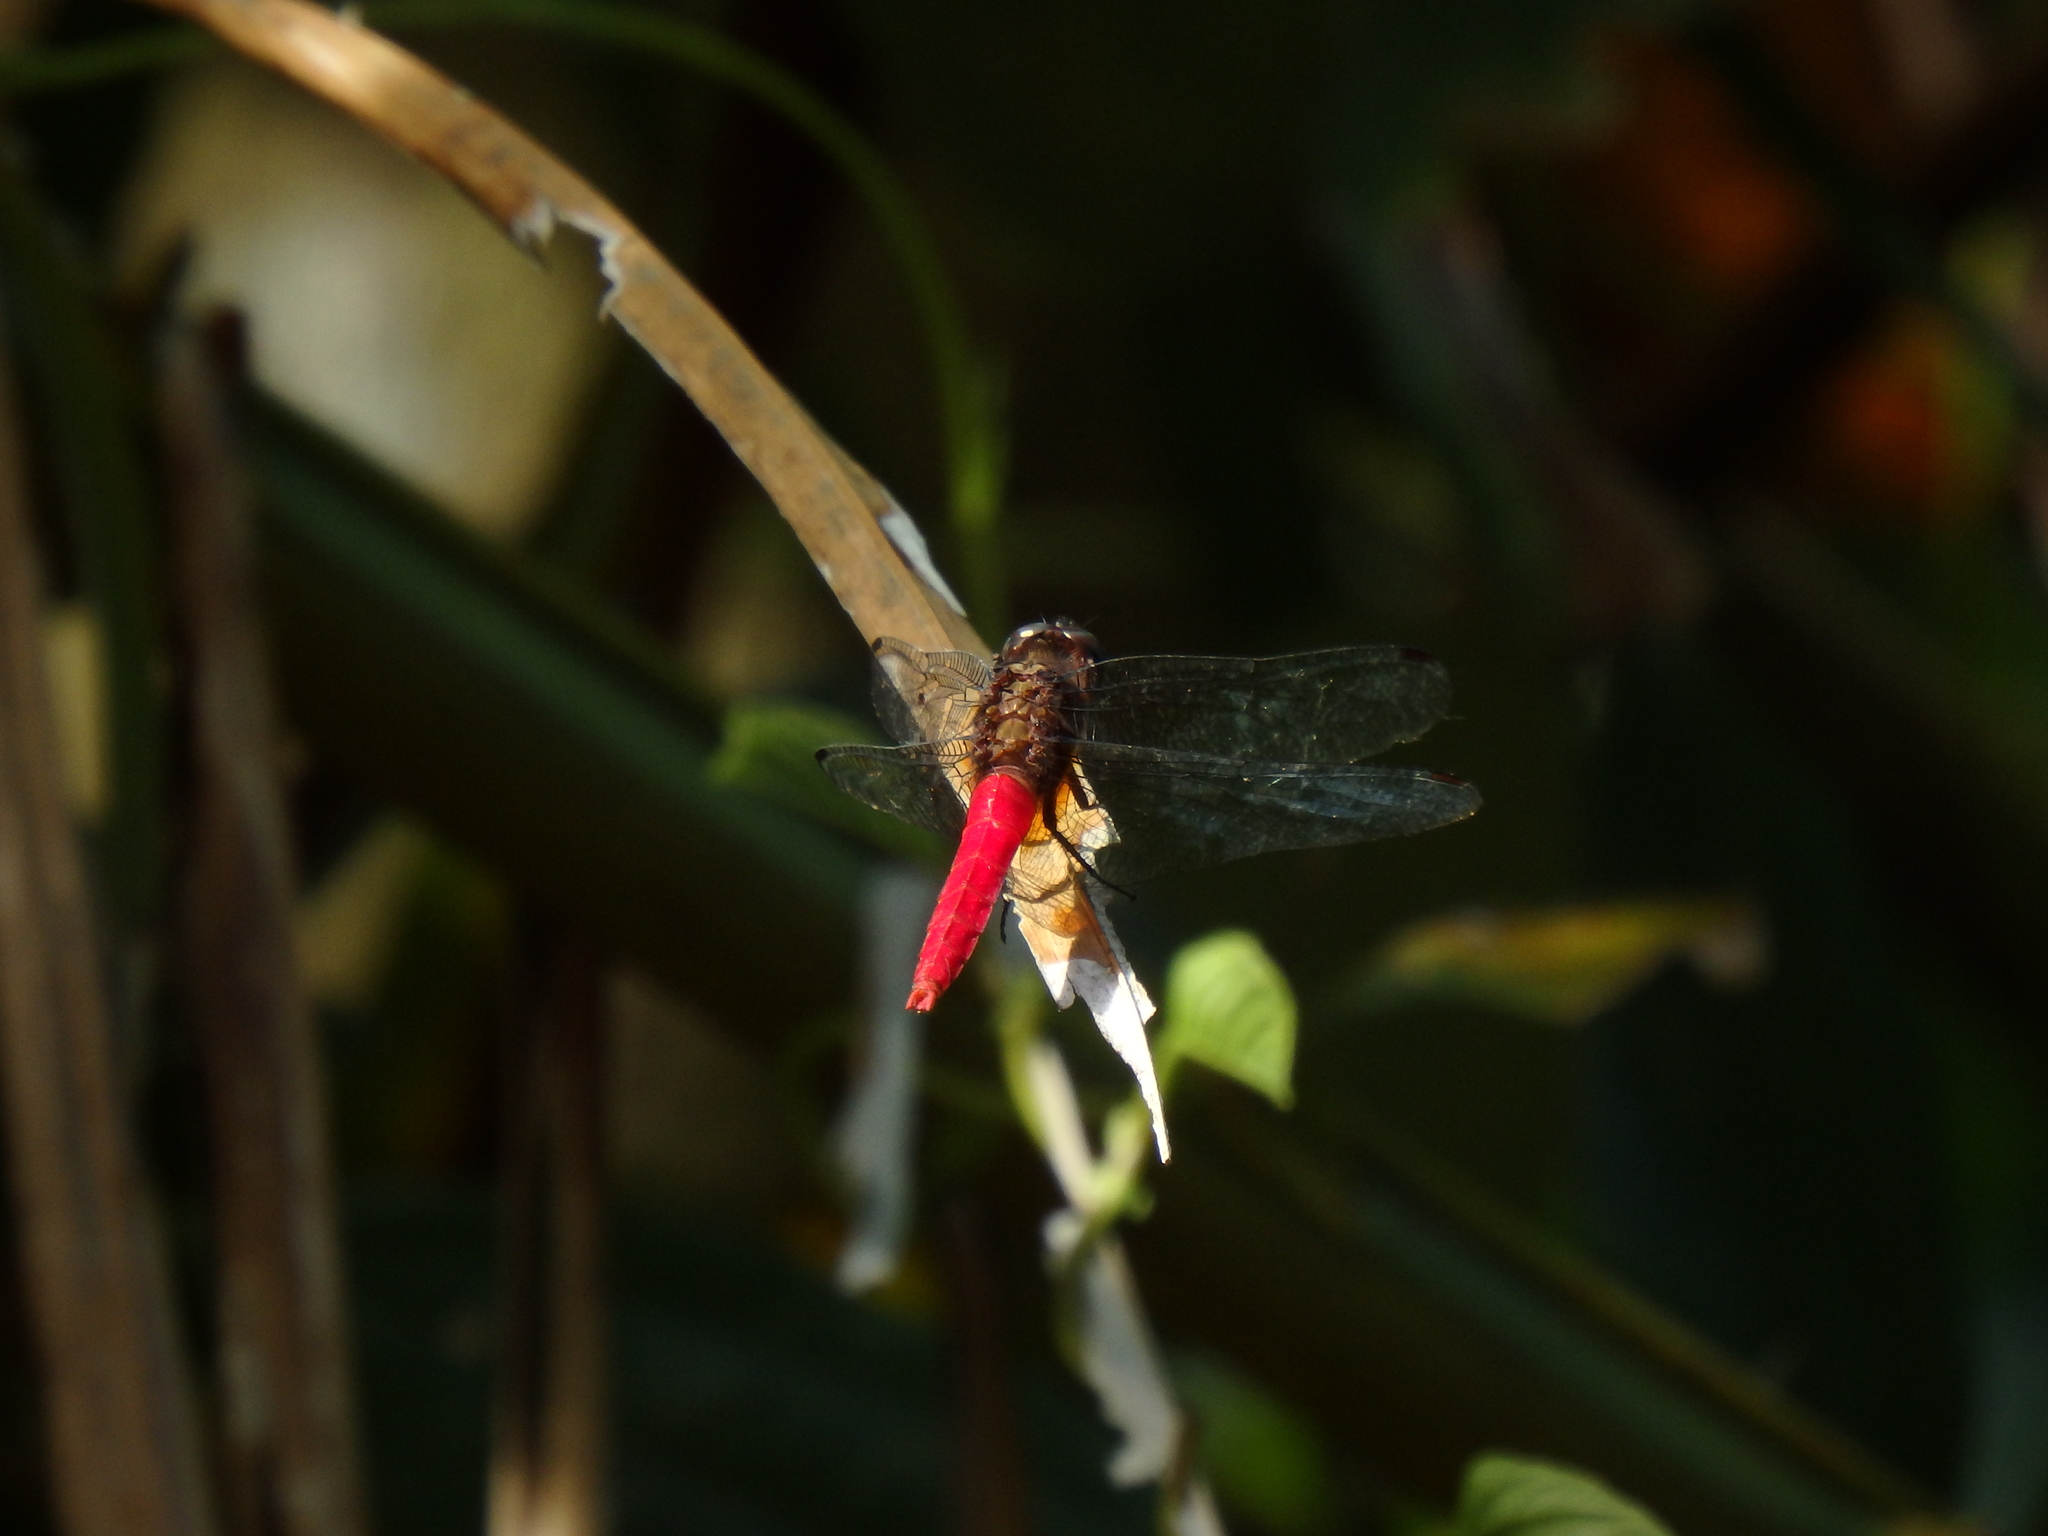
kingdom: Animalia
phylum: Arthropoda
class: Insecta
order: Odonata
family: Libellulidae
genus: Orthetrum
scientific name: Orthetrum chrysis
